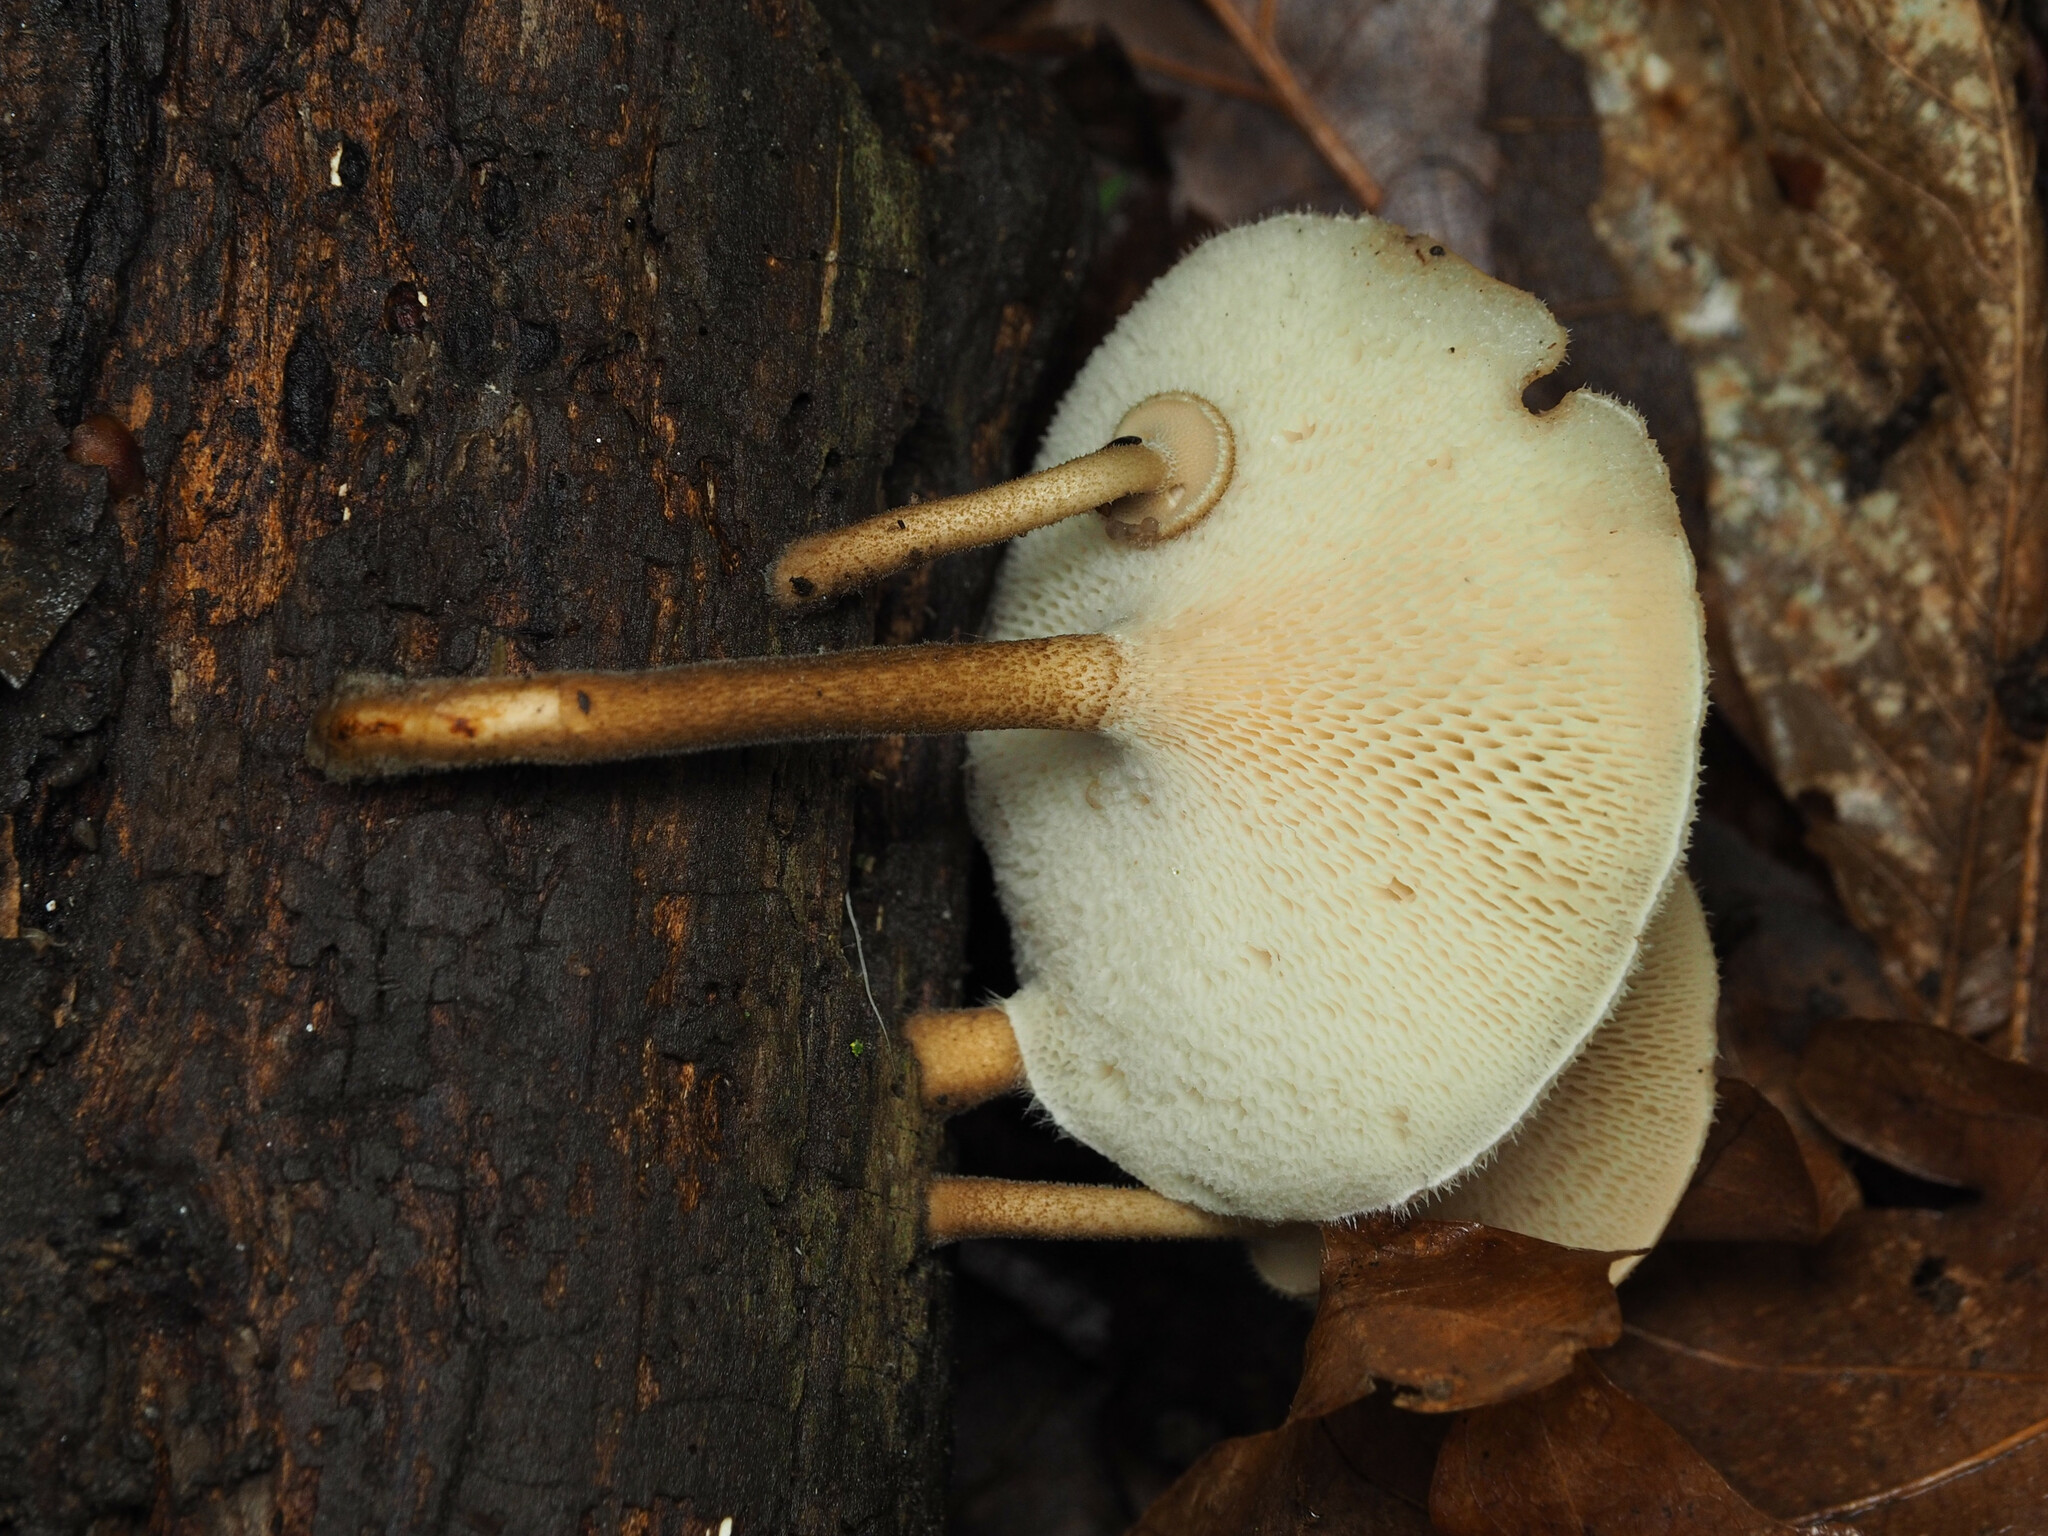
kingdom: Fungi
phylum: Basidiomycota
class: Agaricomycetes
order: Polyporales
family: Polyporaceae
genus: Lentinus
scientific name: Lentinus arcularius
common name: Spring polypore
